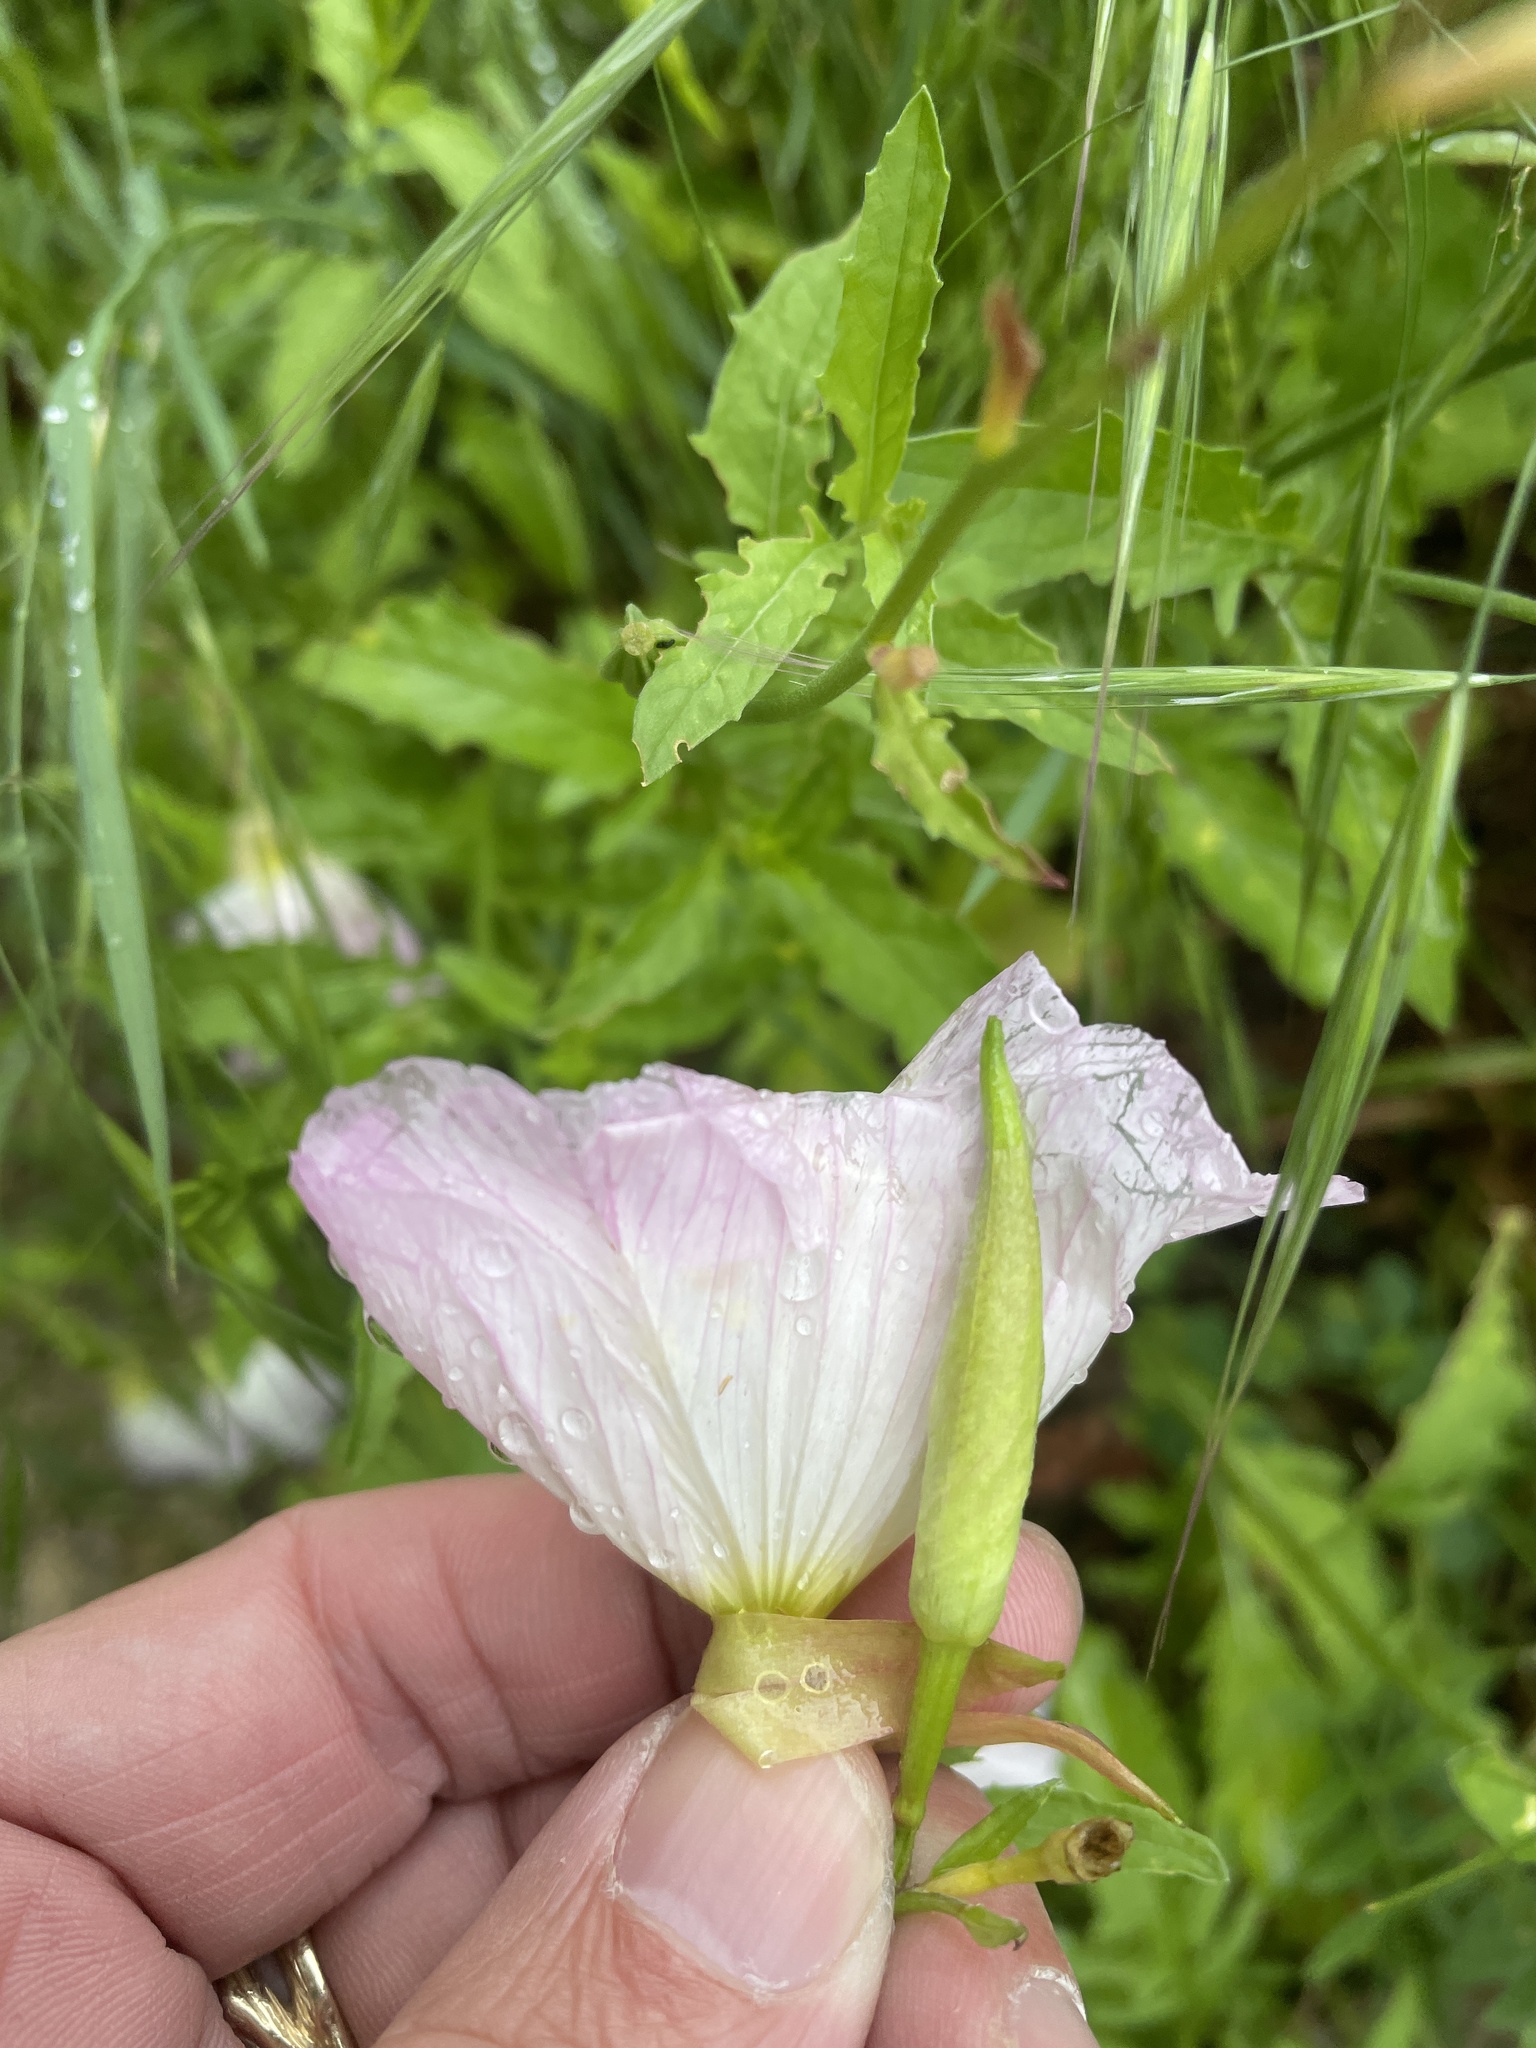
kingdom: Plantae
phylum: Tracheophyta
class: Magnoliopsida
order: Myrtales
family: Onagraceae
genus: Oenothera
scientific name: Oenothera speciosa
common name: White evening-primrose
